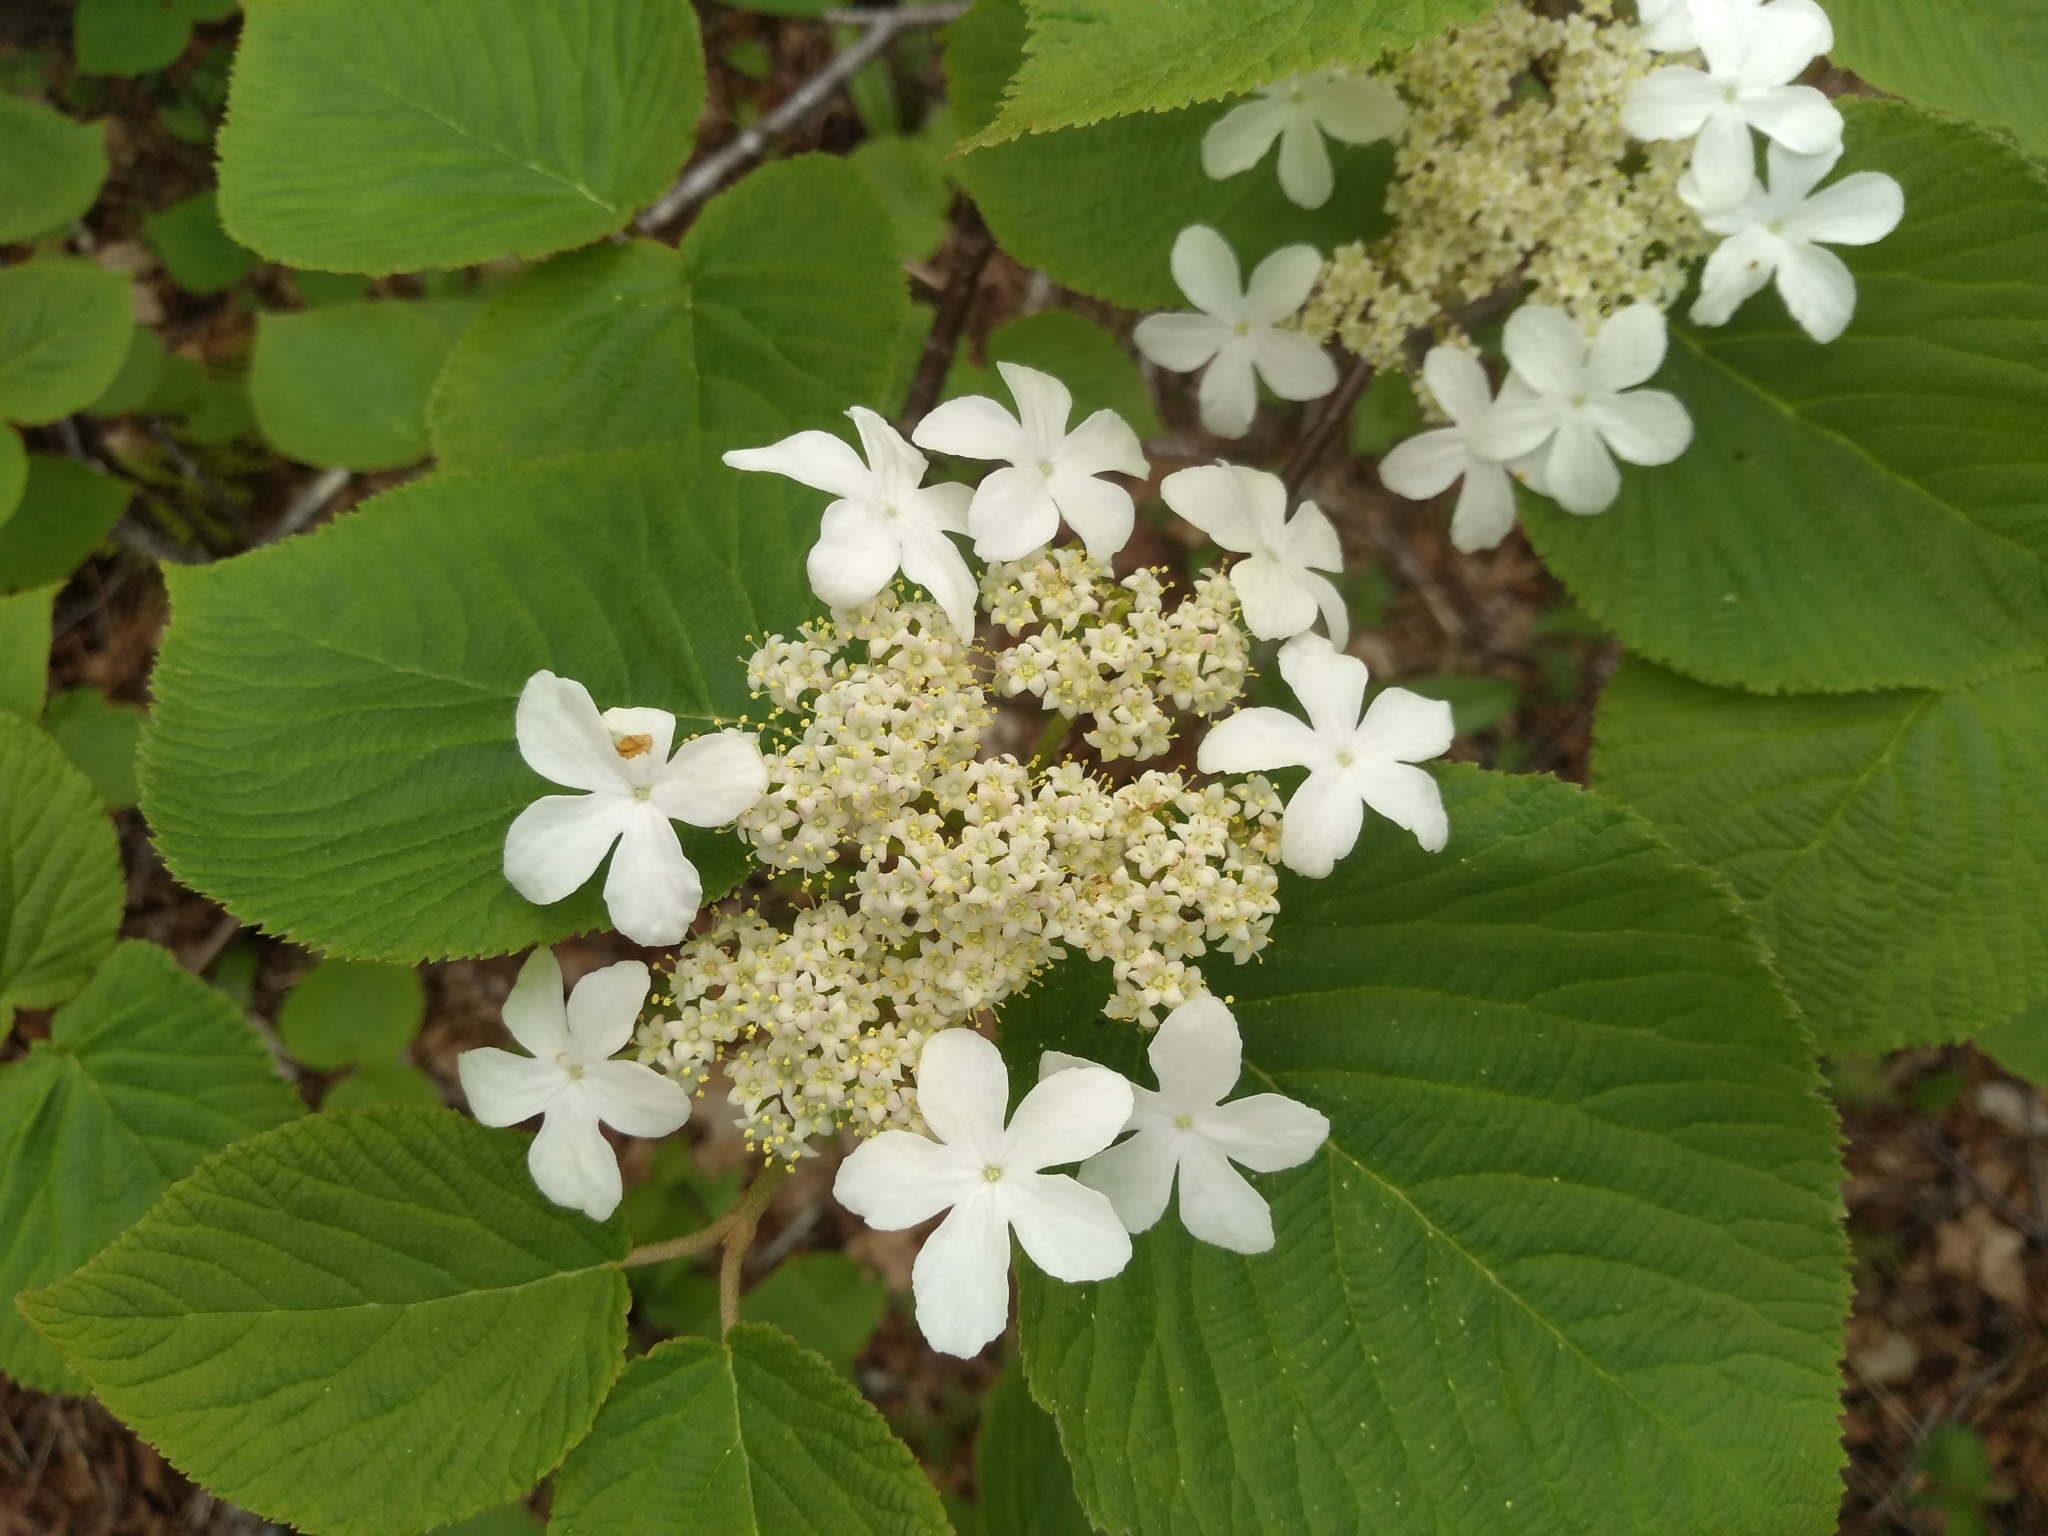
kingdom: Plantae
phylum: Tracheophyta
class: Magnoliopsida
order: Dipsacales
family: Viburnaceae
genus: Viburnum
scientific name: Viburnum lantanoides
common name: Hobblebush
